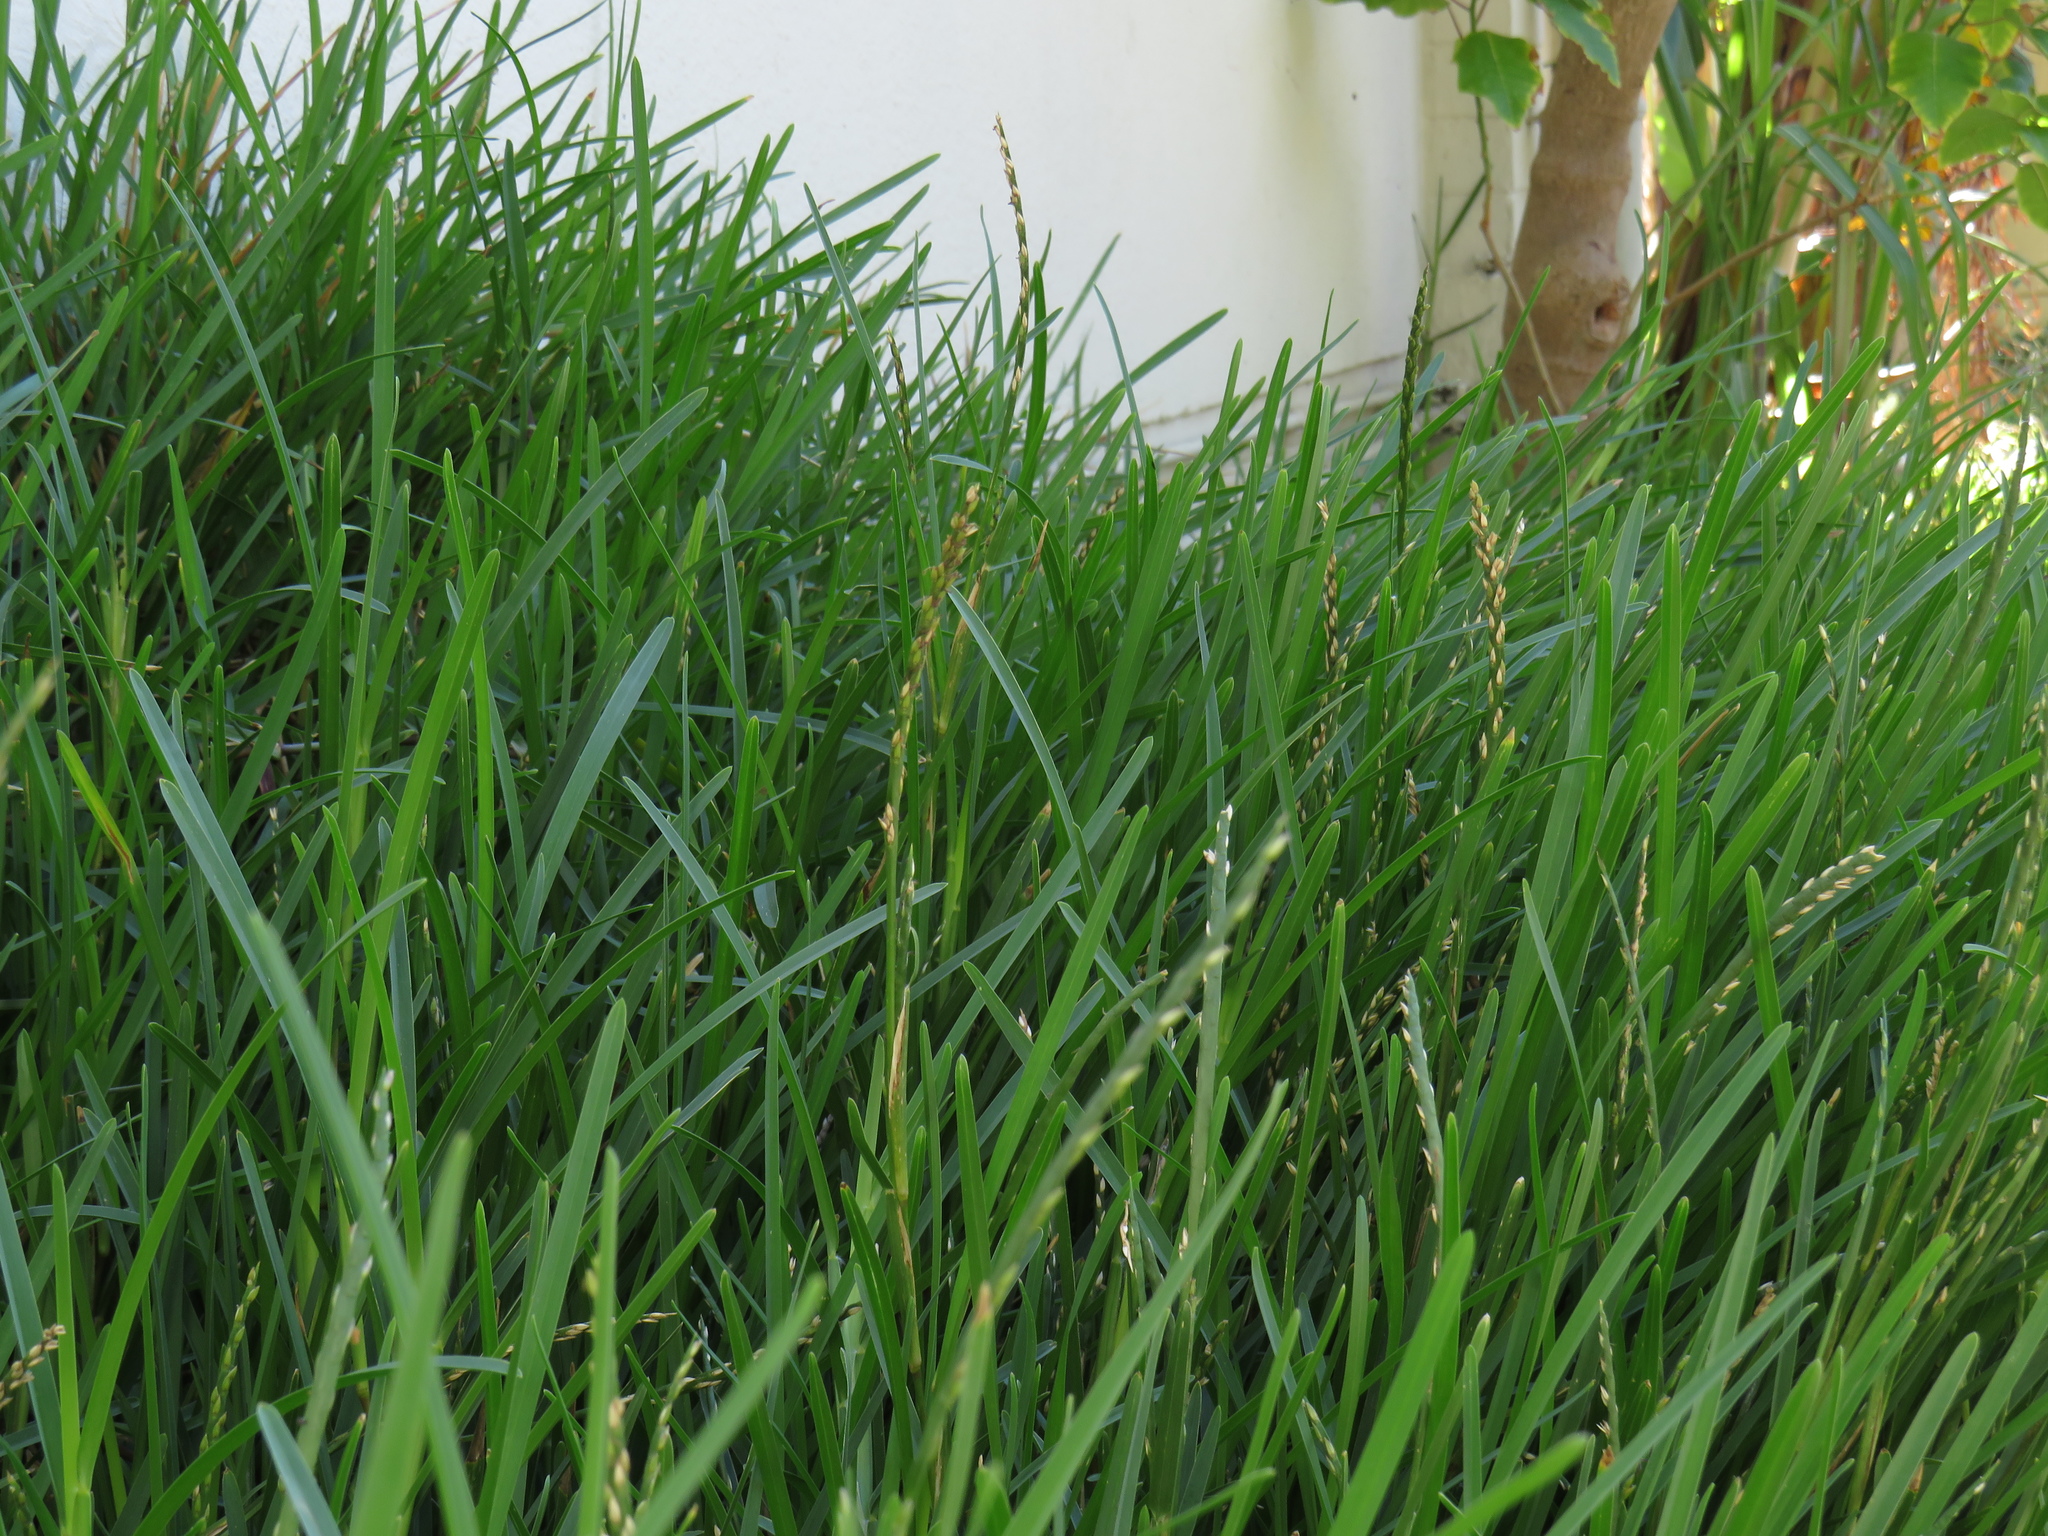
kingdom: Plantae
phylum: Tracheophyta
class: Liliopsida
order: Poales
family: Poaceae
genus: Stenotaphrum
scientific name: Stenotaphrum secundatum
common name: St. augustine grass
